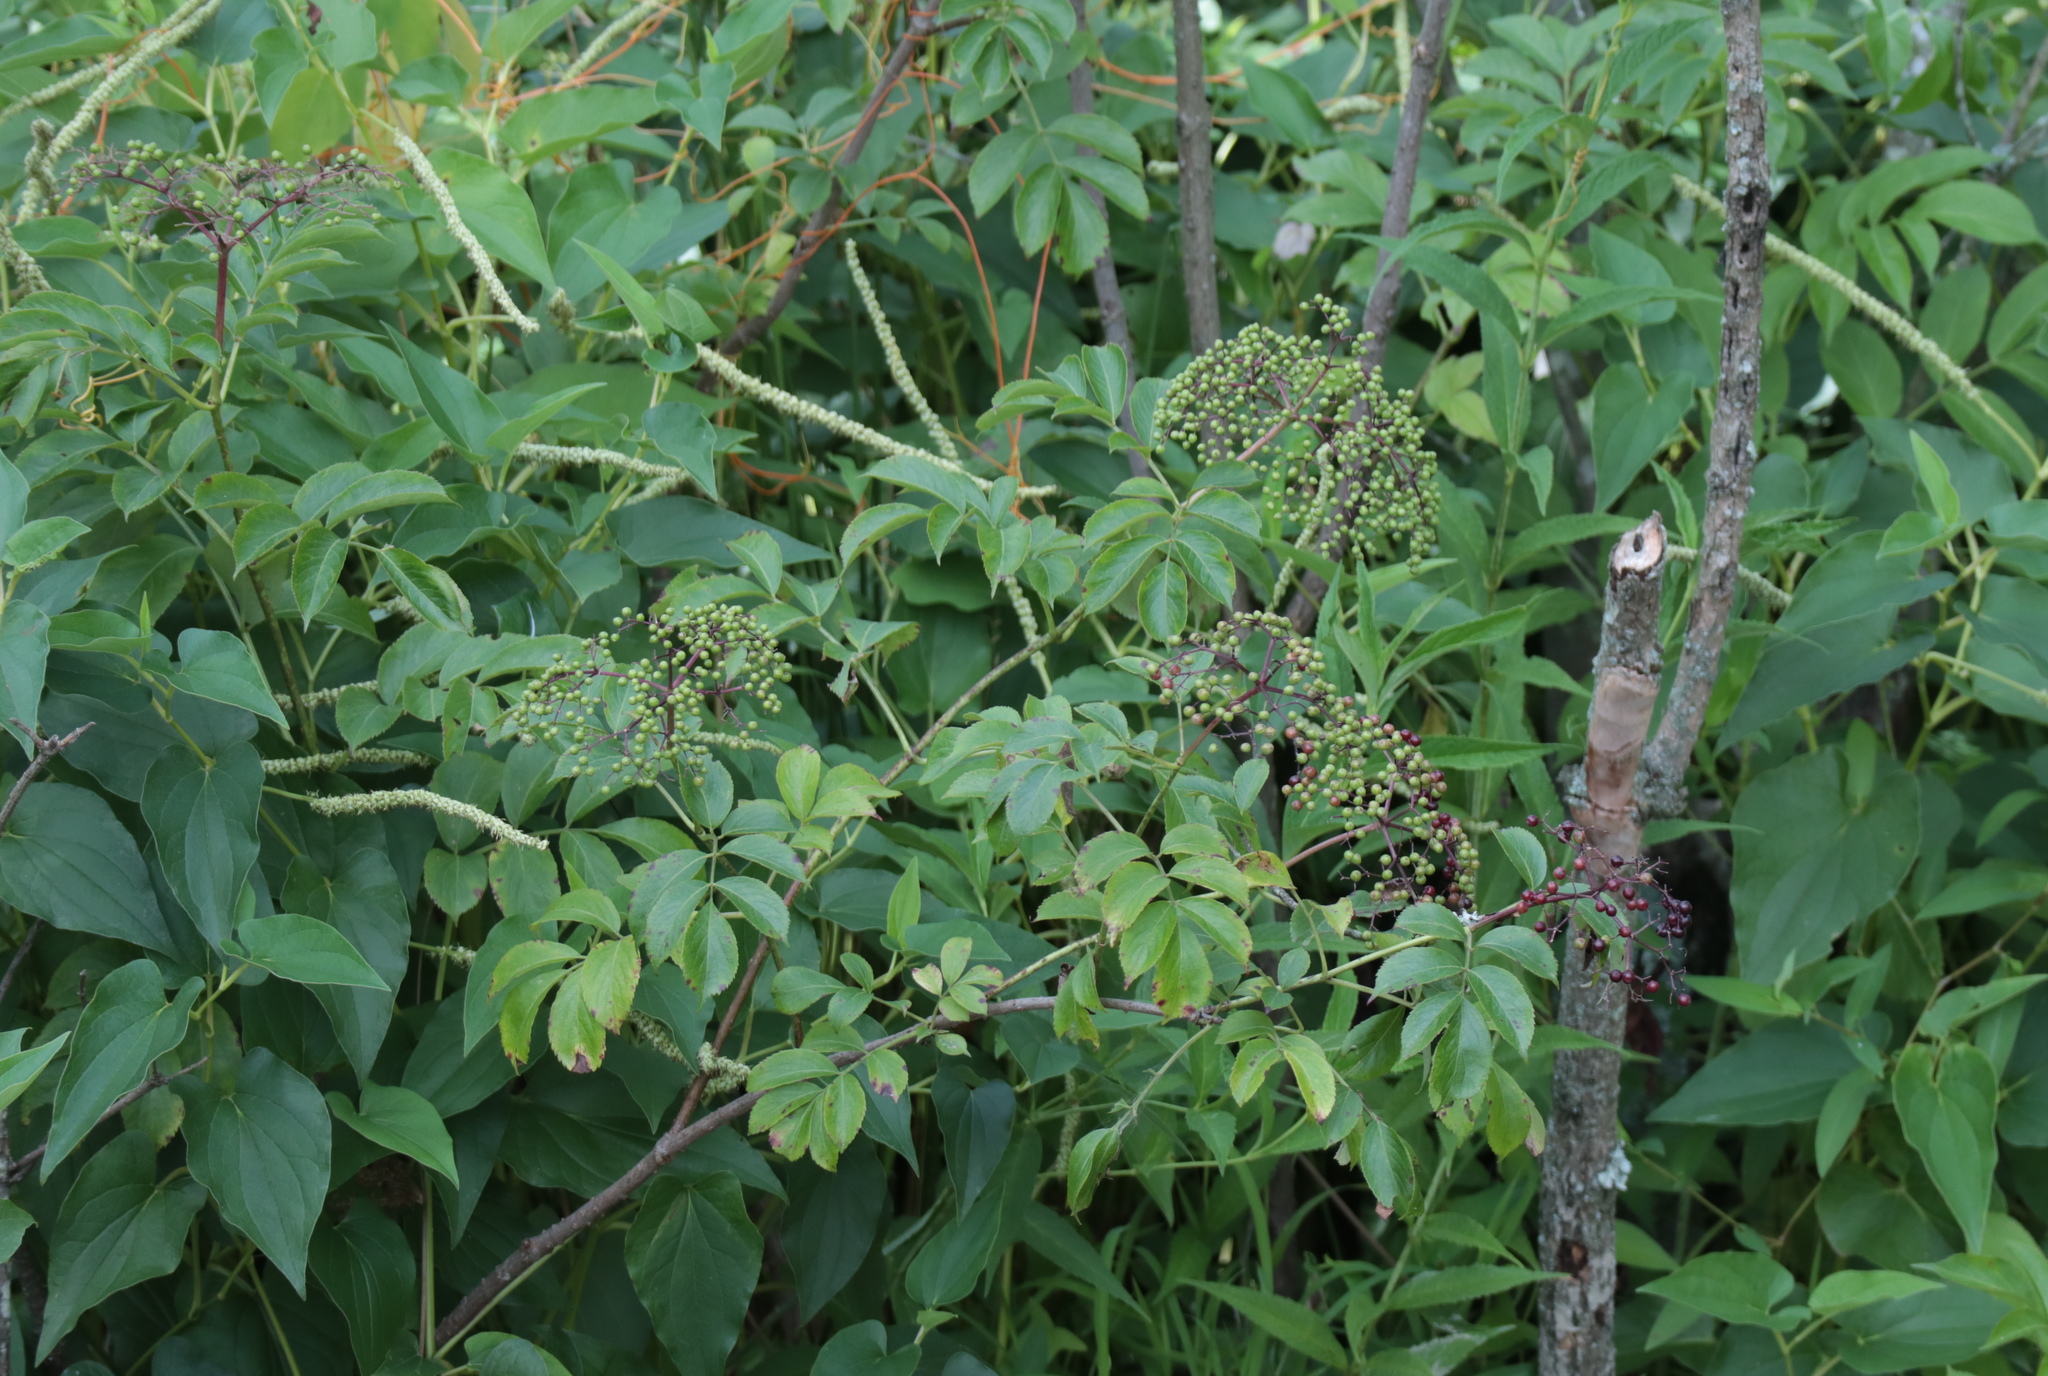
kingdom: Plantae
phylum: Tracheophyta
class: Magnoliopsida
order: Dipsacales
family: Viburnaceae
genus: Sambucus
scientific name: Sambucus canadensis
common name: American elder
